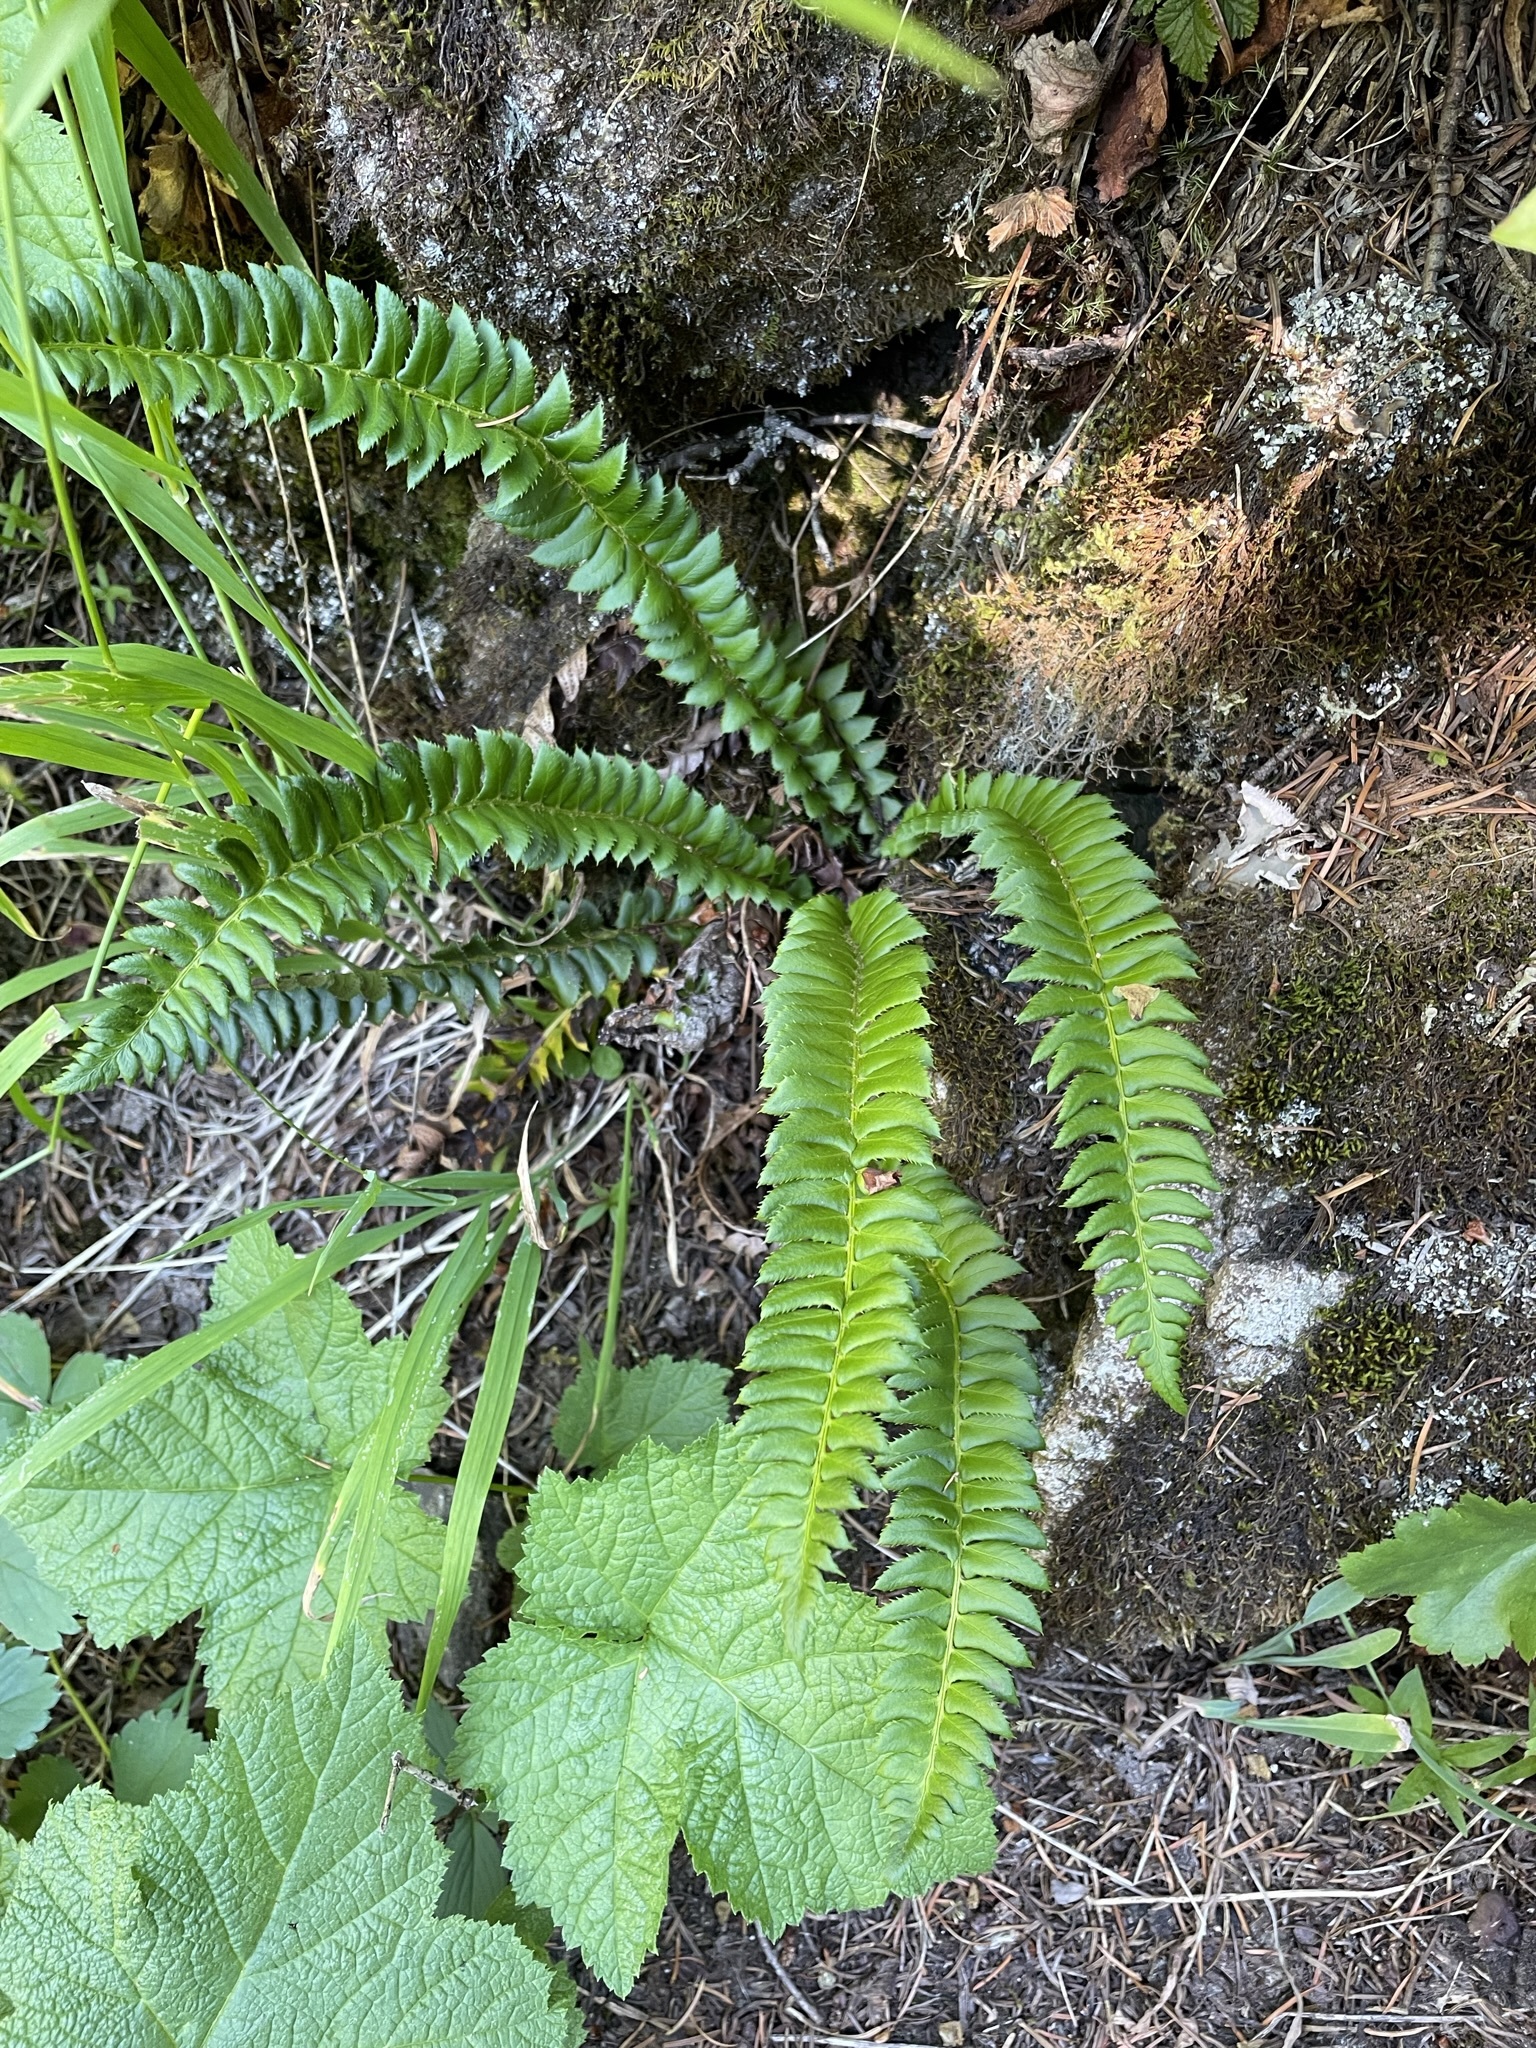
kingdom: Plantae
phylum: Tracheophyta
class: Polypodiopsida
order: Polypodiales
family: Dryopteridaceae
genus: Polystichum
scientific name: Polystichum lonchitis
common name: Holly fern
